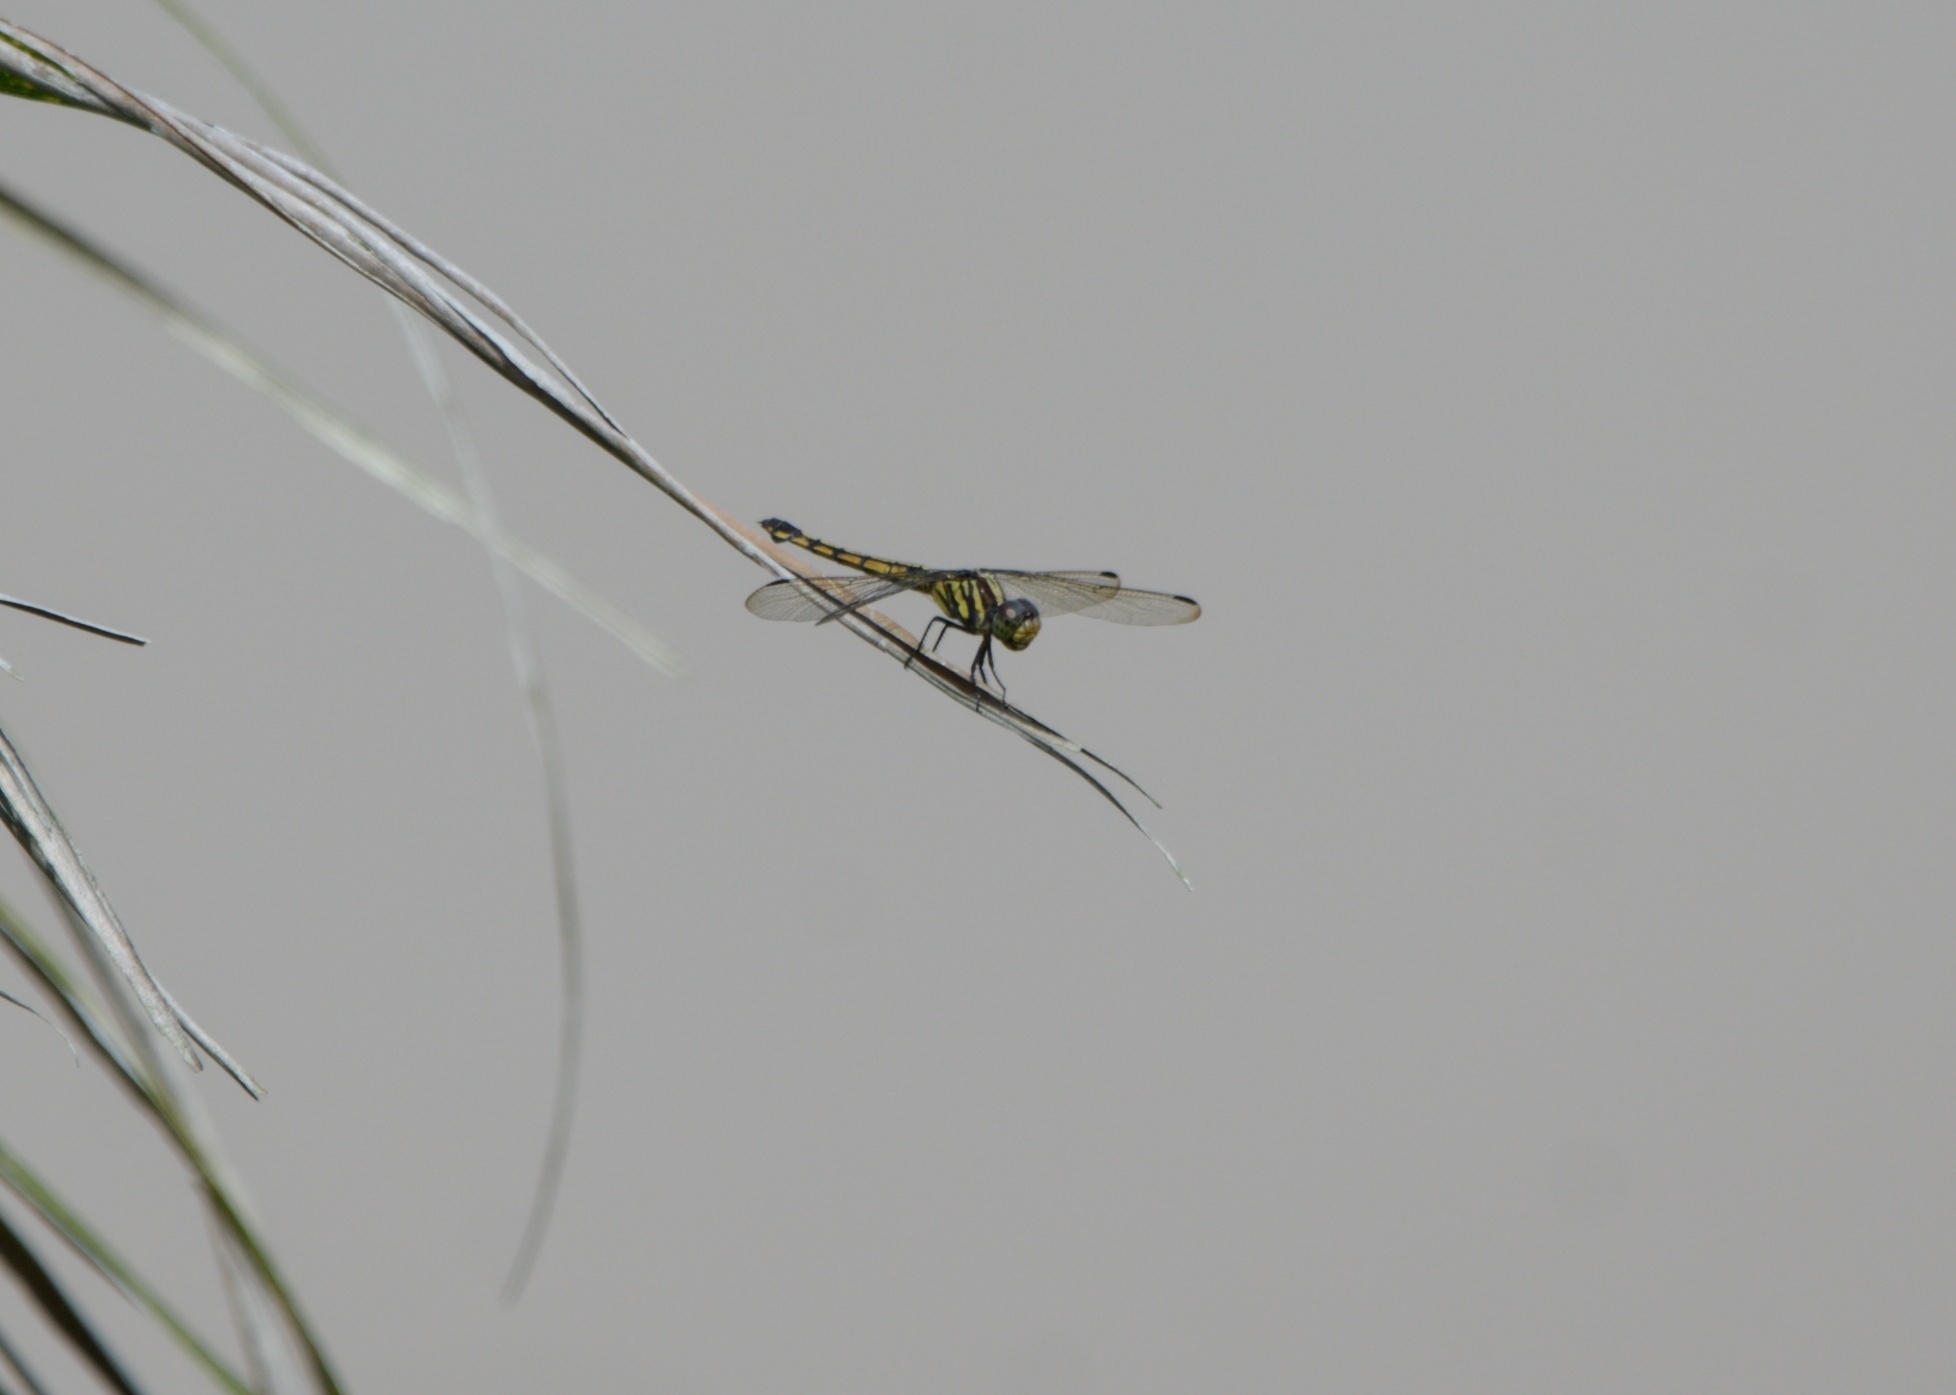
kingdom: Animalia
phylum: Arthropoda
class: Insecta
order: Odonata
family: Libellulidae
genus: Potamarcha
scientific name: Potamarcha congener
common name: Blue chaser
